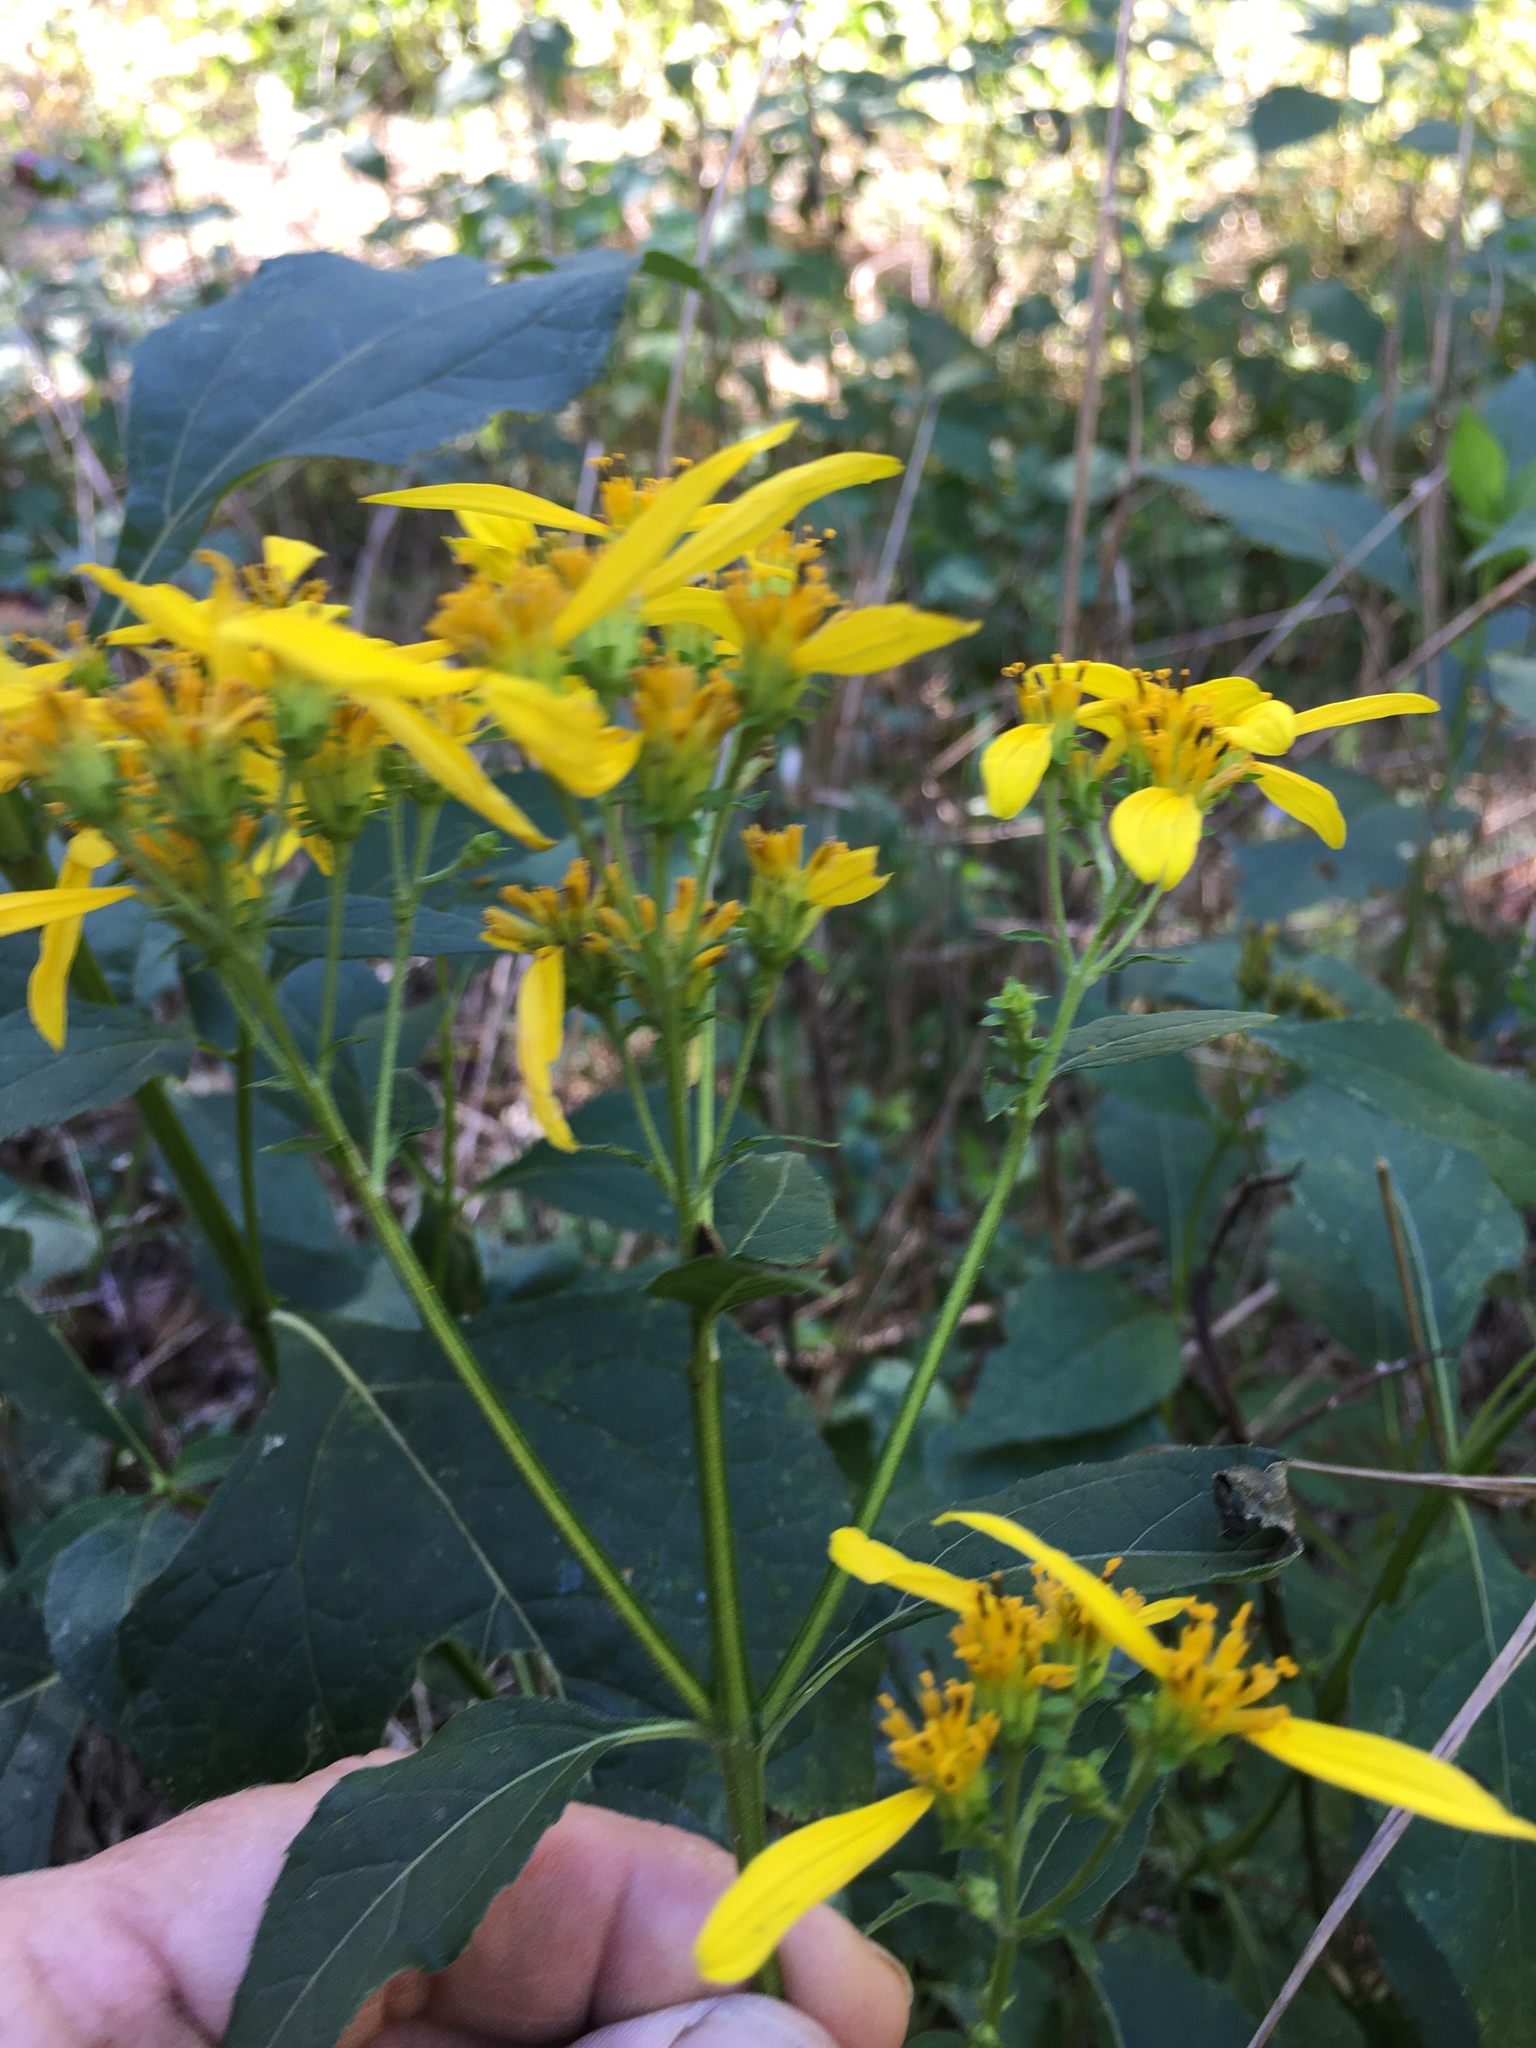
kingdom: Plantae
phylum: Tracheophyta
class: Magnoliopsida
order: Asterales
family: Asteraceae
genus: Verbesina
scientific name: Verbesina occidentalis
